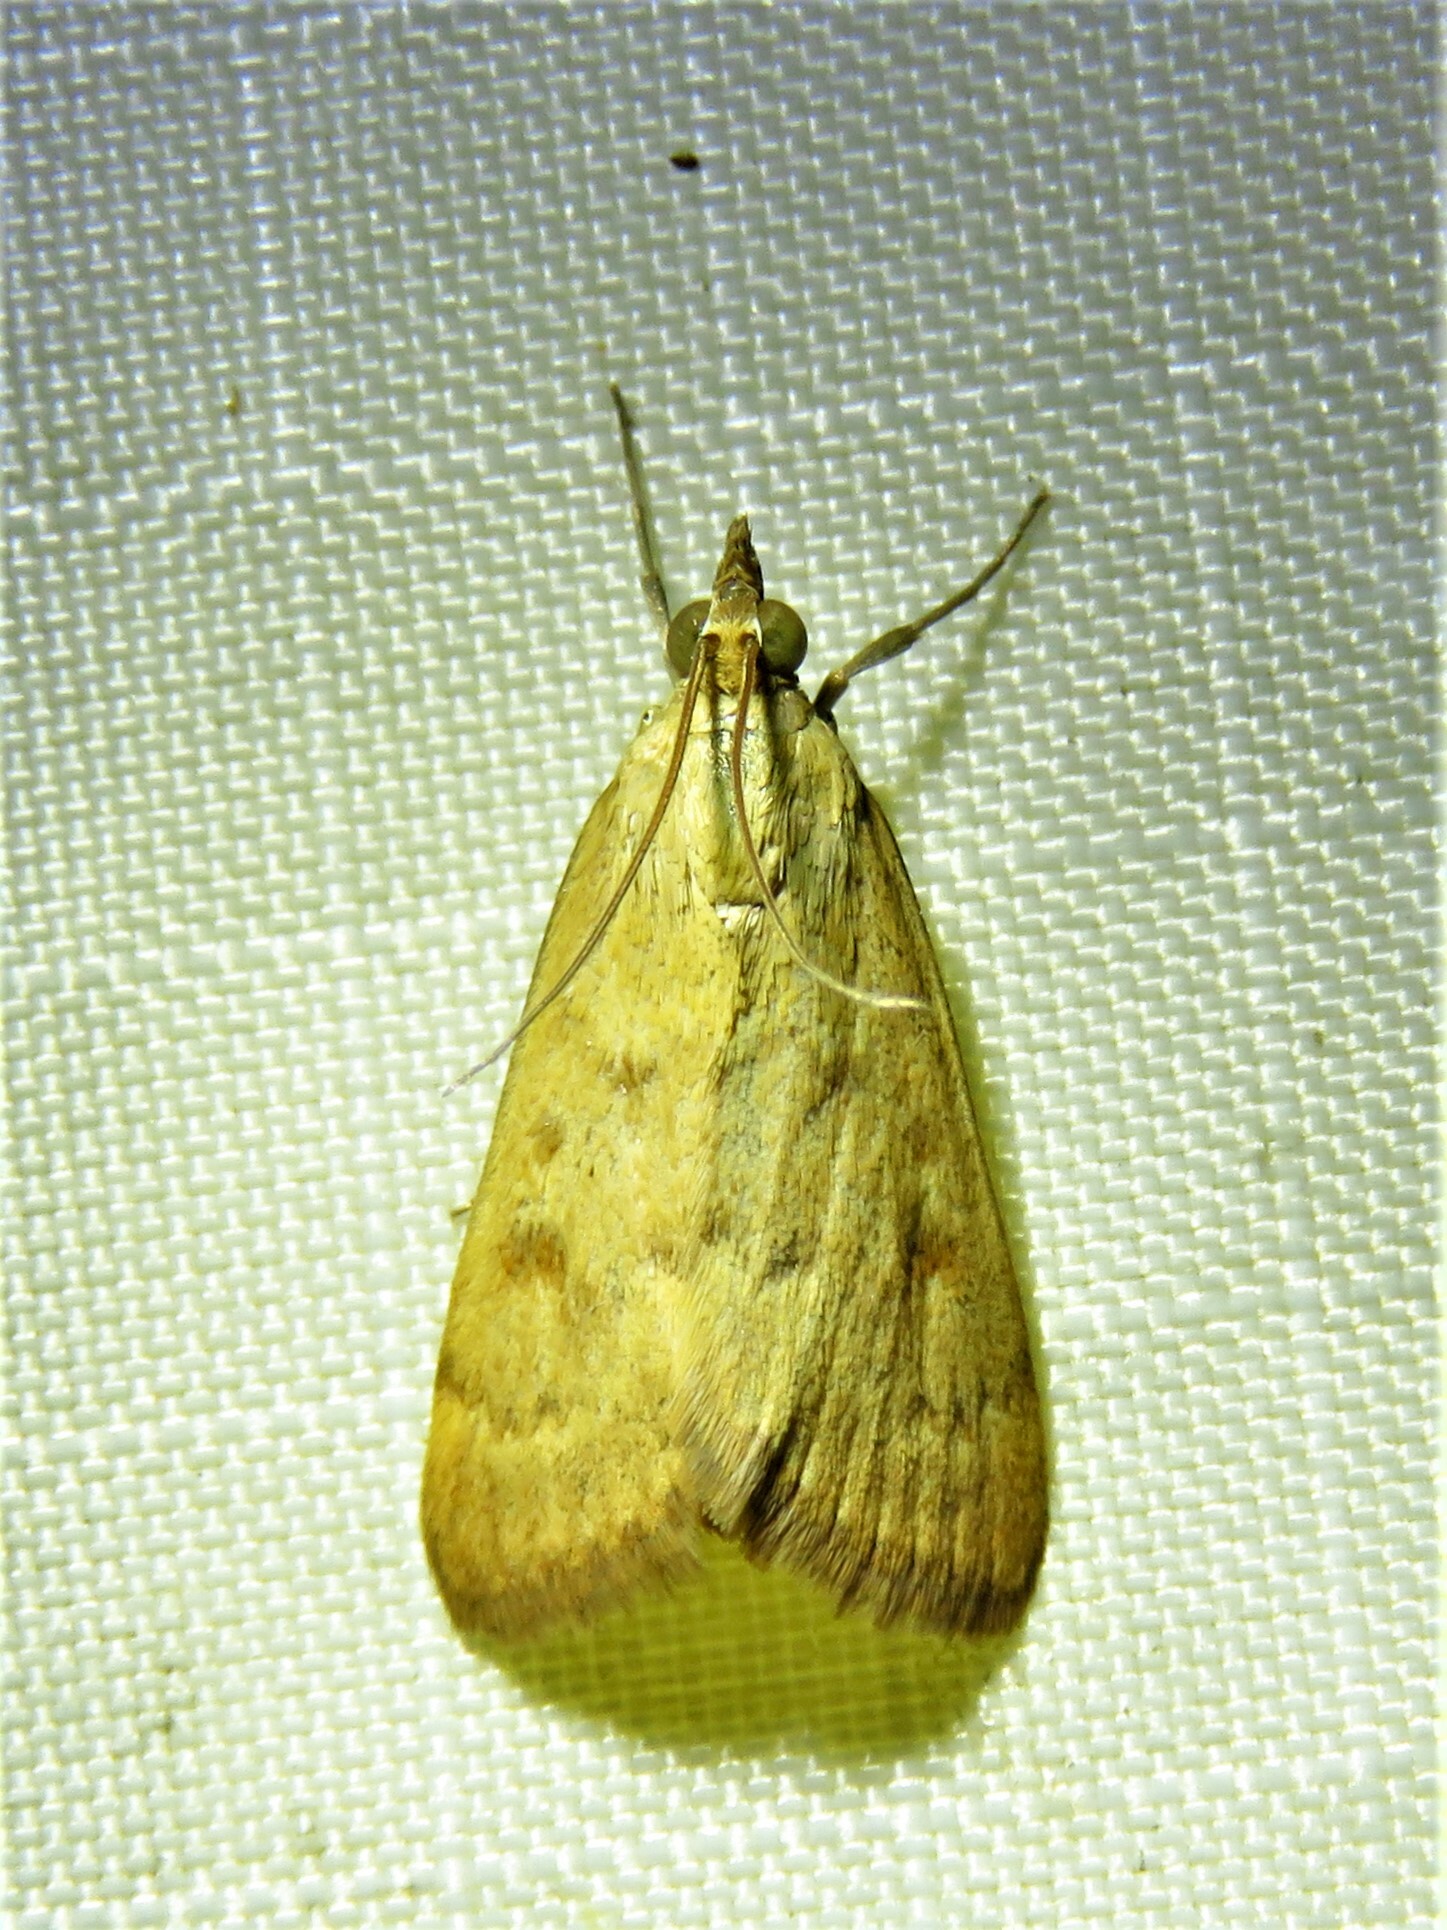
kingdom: Animalia
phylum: Arthropoda
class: Insecta
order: Lepidoptera
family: Crambidae
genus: Achyra
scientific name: Achyra rantalis
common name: Garden webworm
